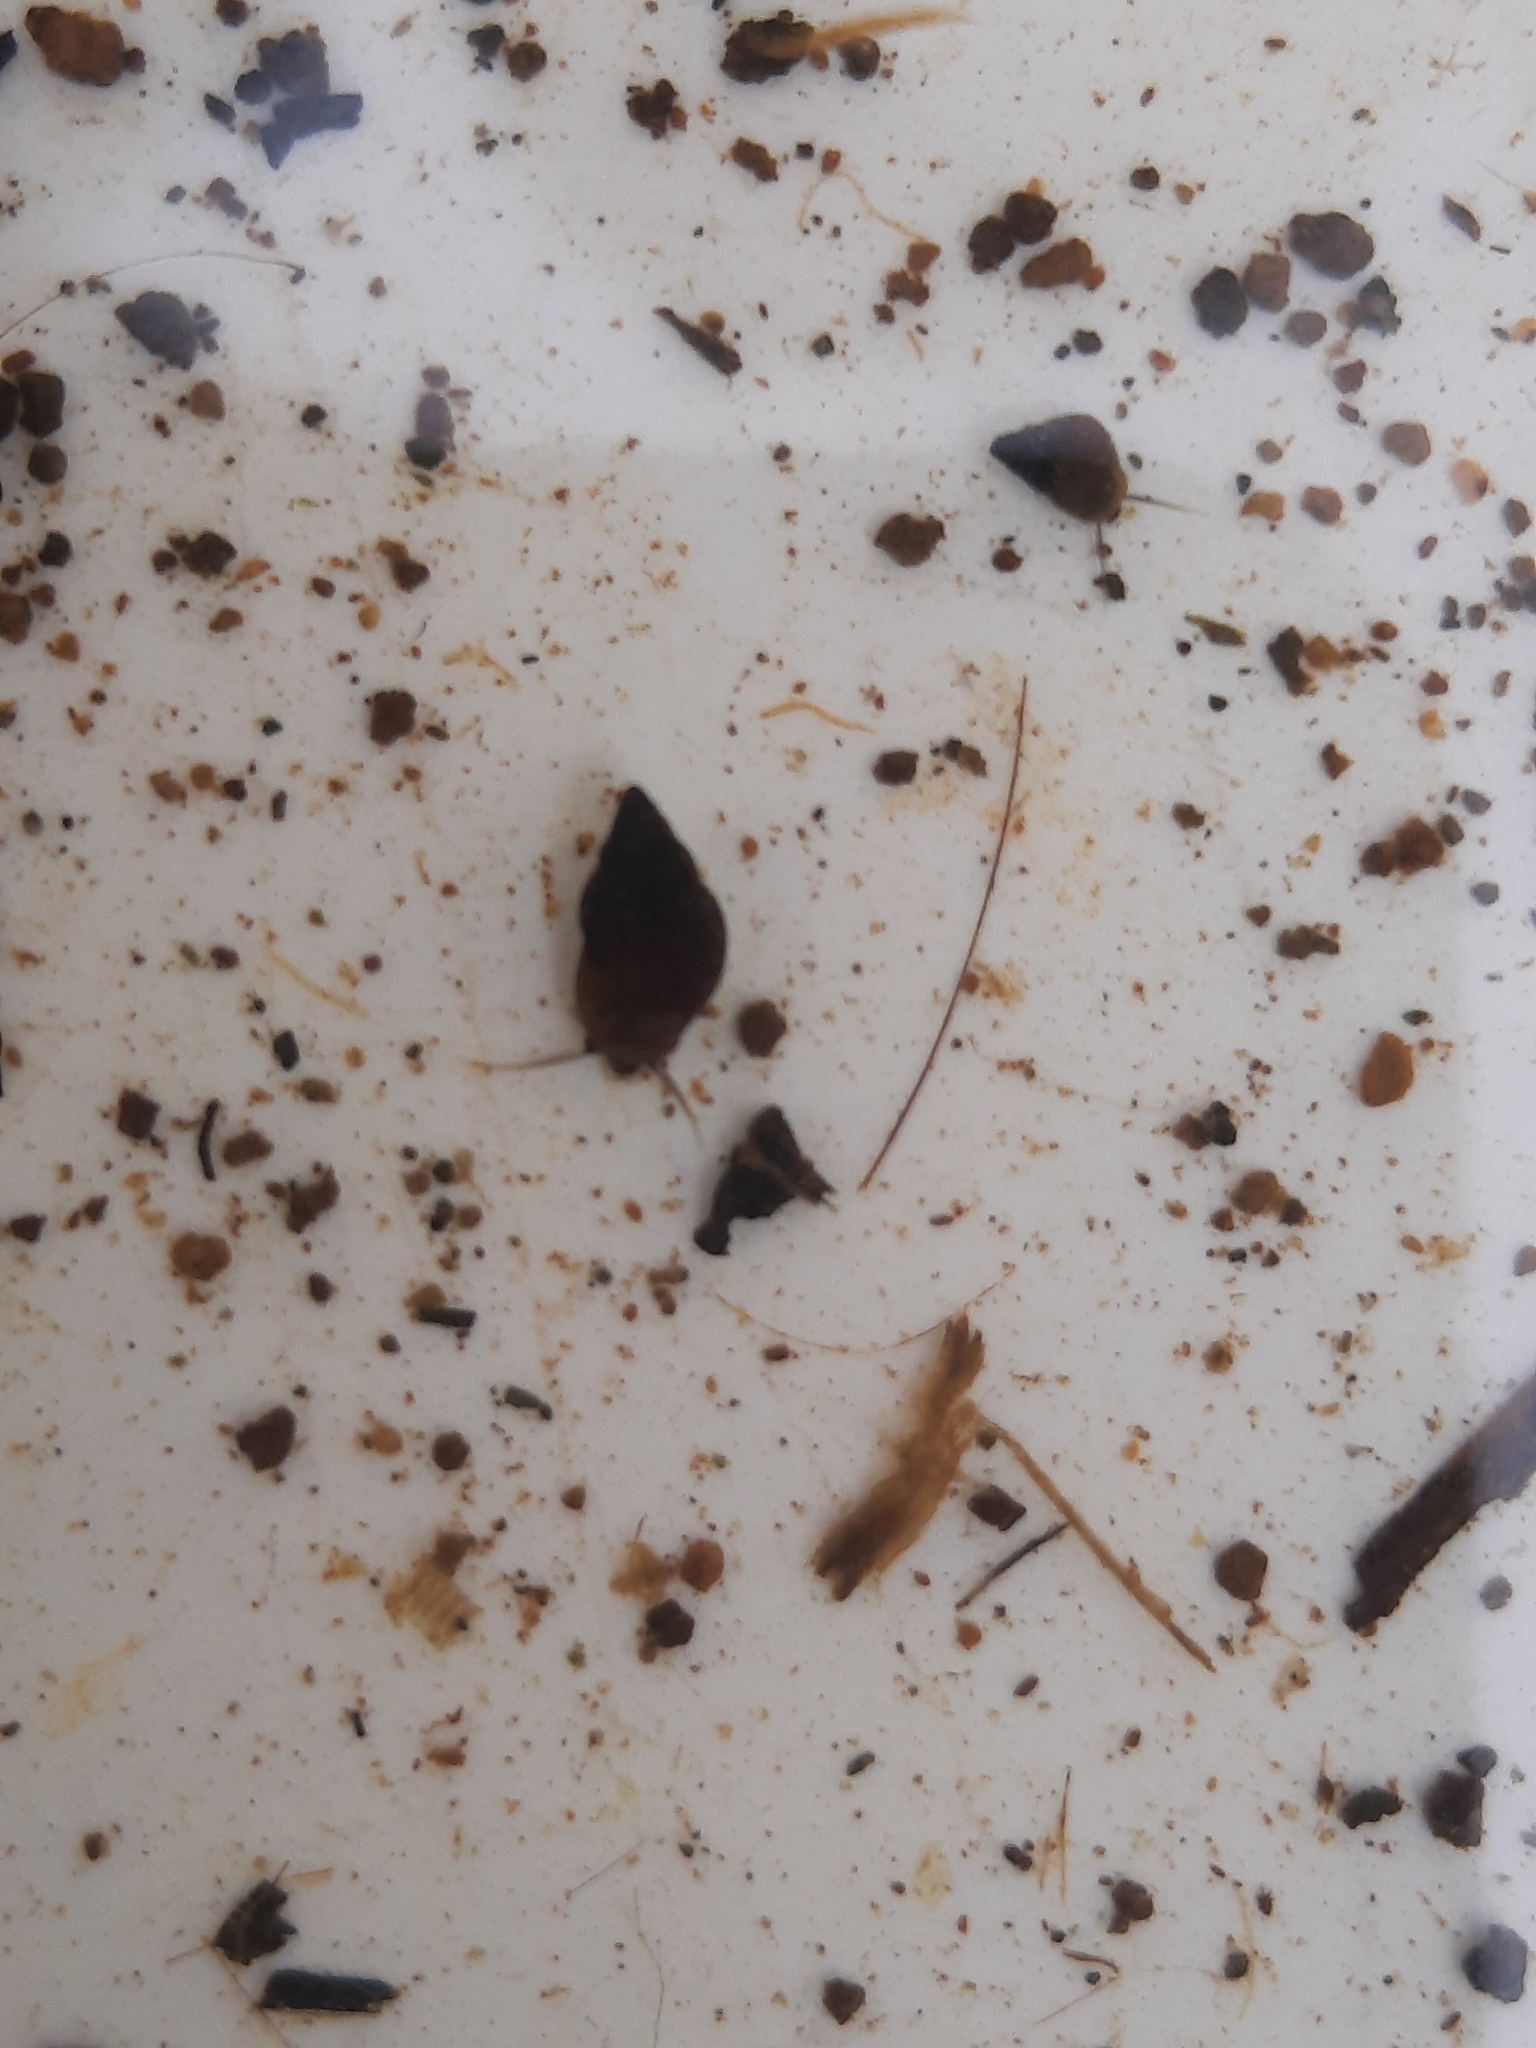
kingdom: Animalia
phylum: Mollusca
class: Gastropoda
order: Littorinimorpha
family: Tateidae
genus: Potamopyrgus
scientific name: Potamopyrgus antipodarum
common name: Jenkins' spire snail
